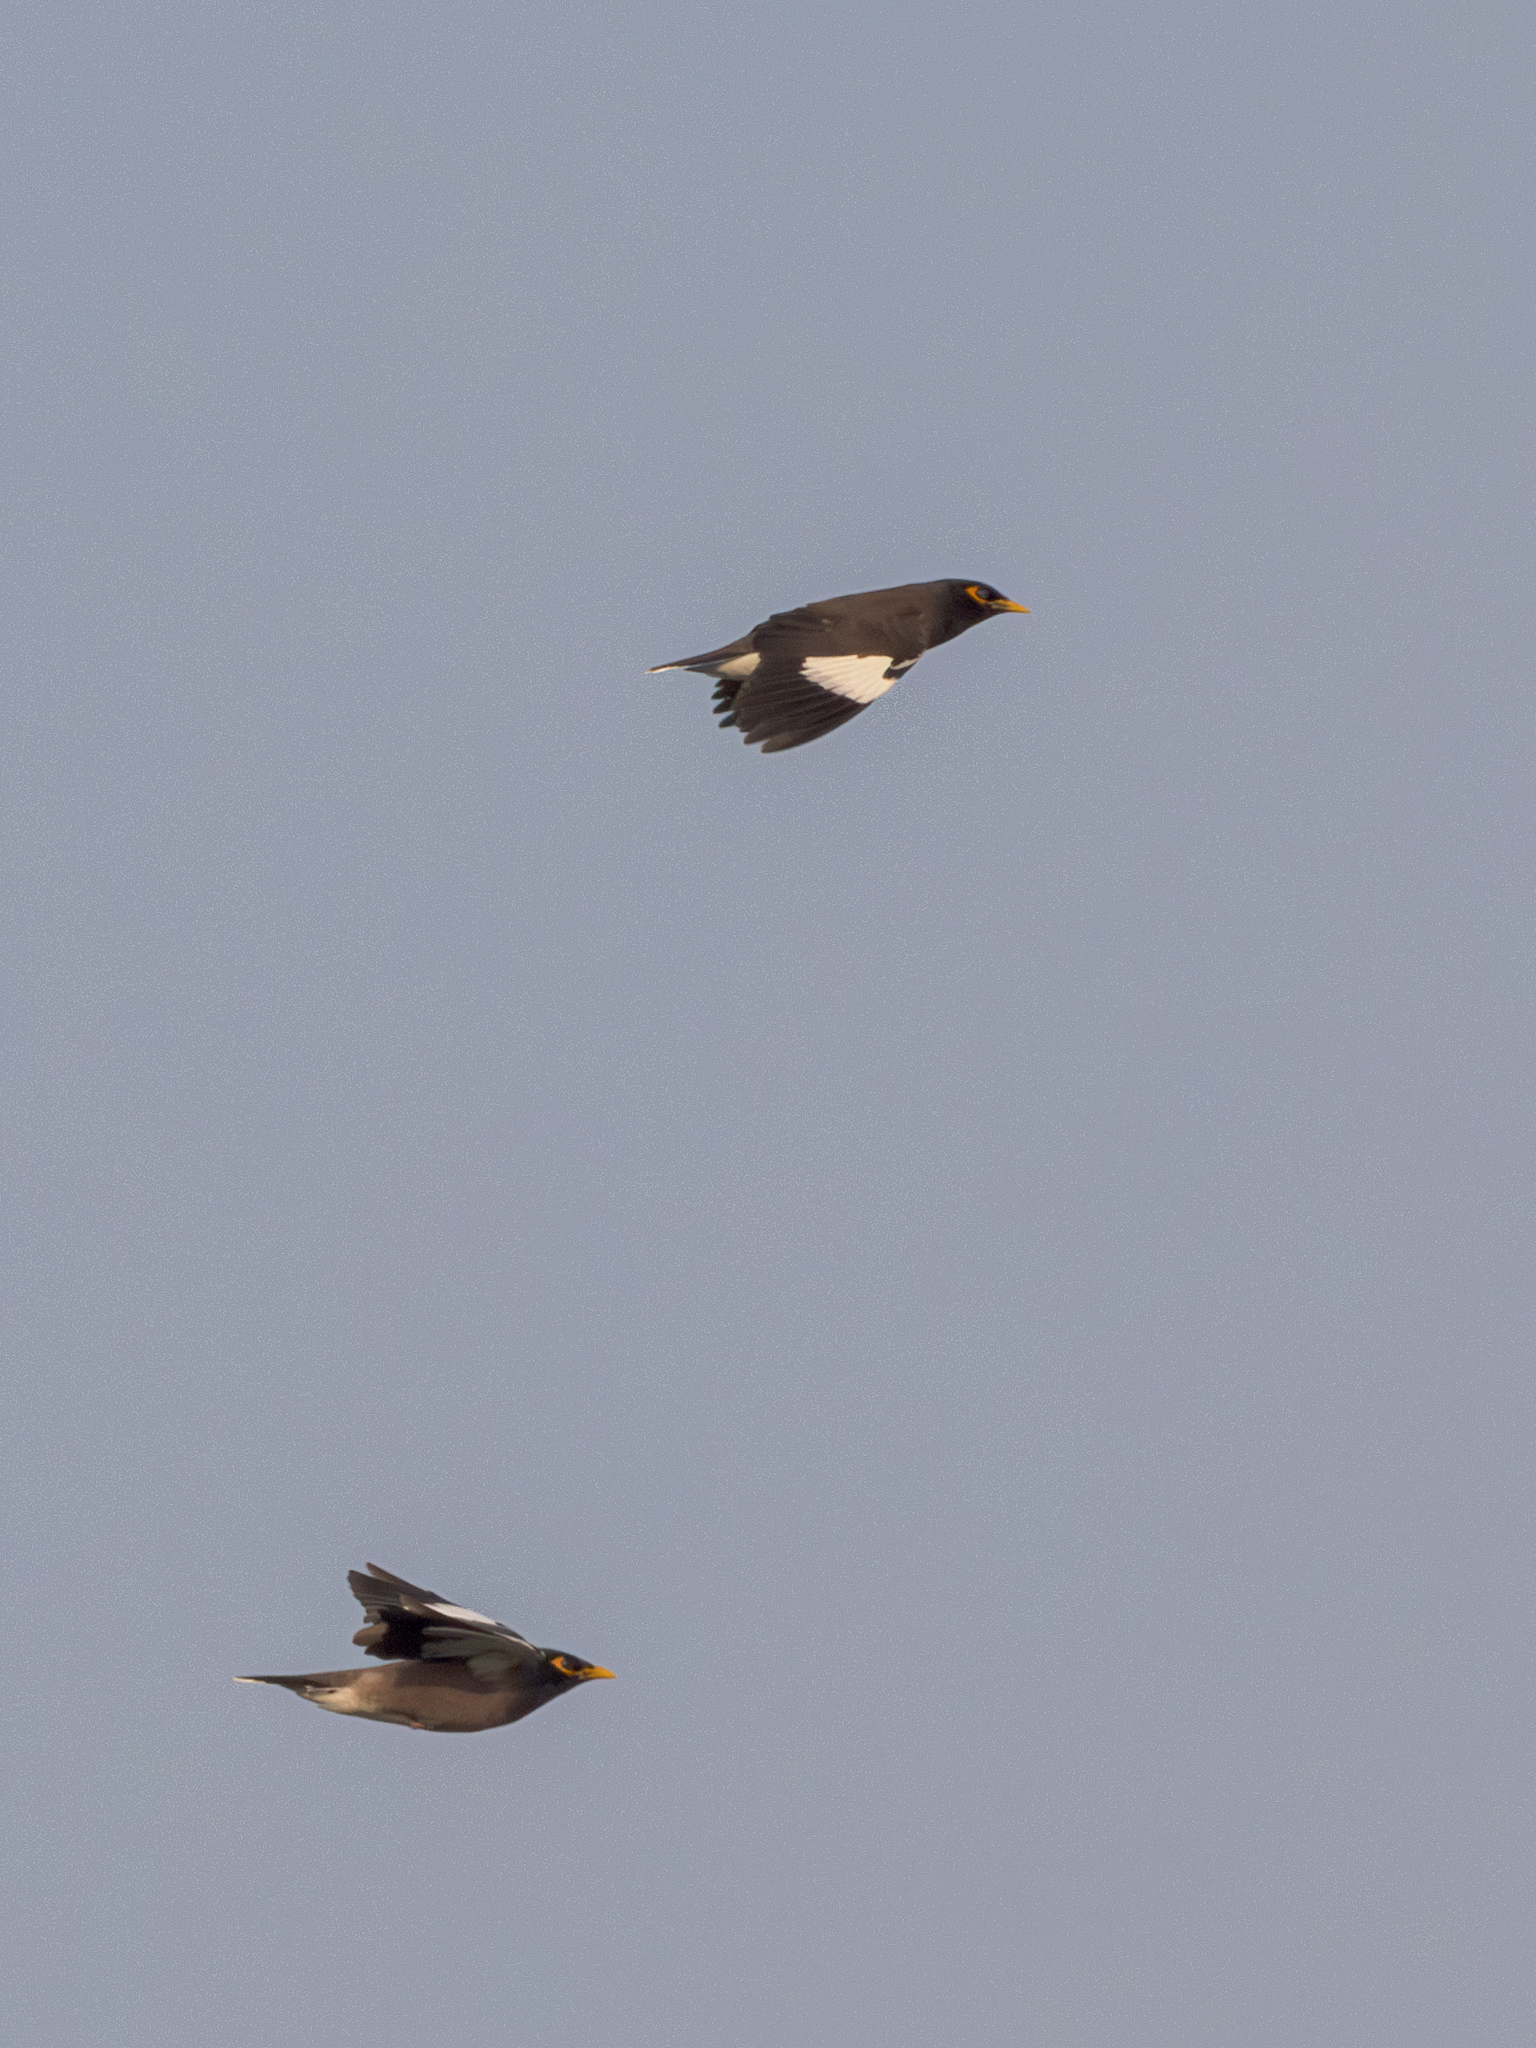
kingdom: Animalia
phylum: Chordata
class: Aves
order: Passeriformes
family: Sturnidae
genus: Acridotheres
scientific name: Acridotheres tristis
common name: Common myna
